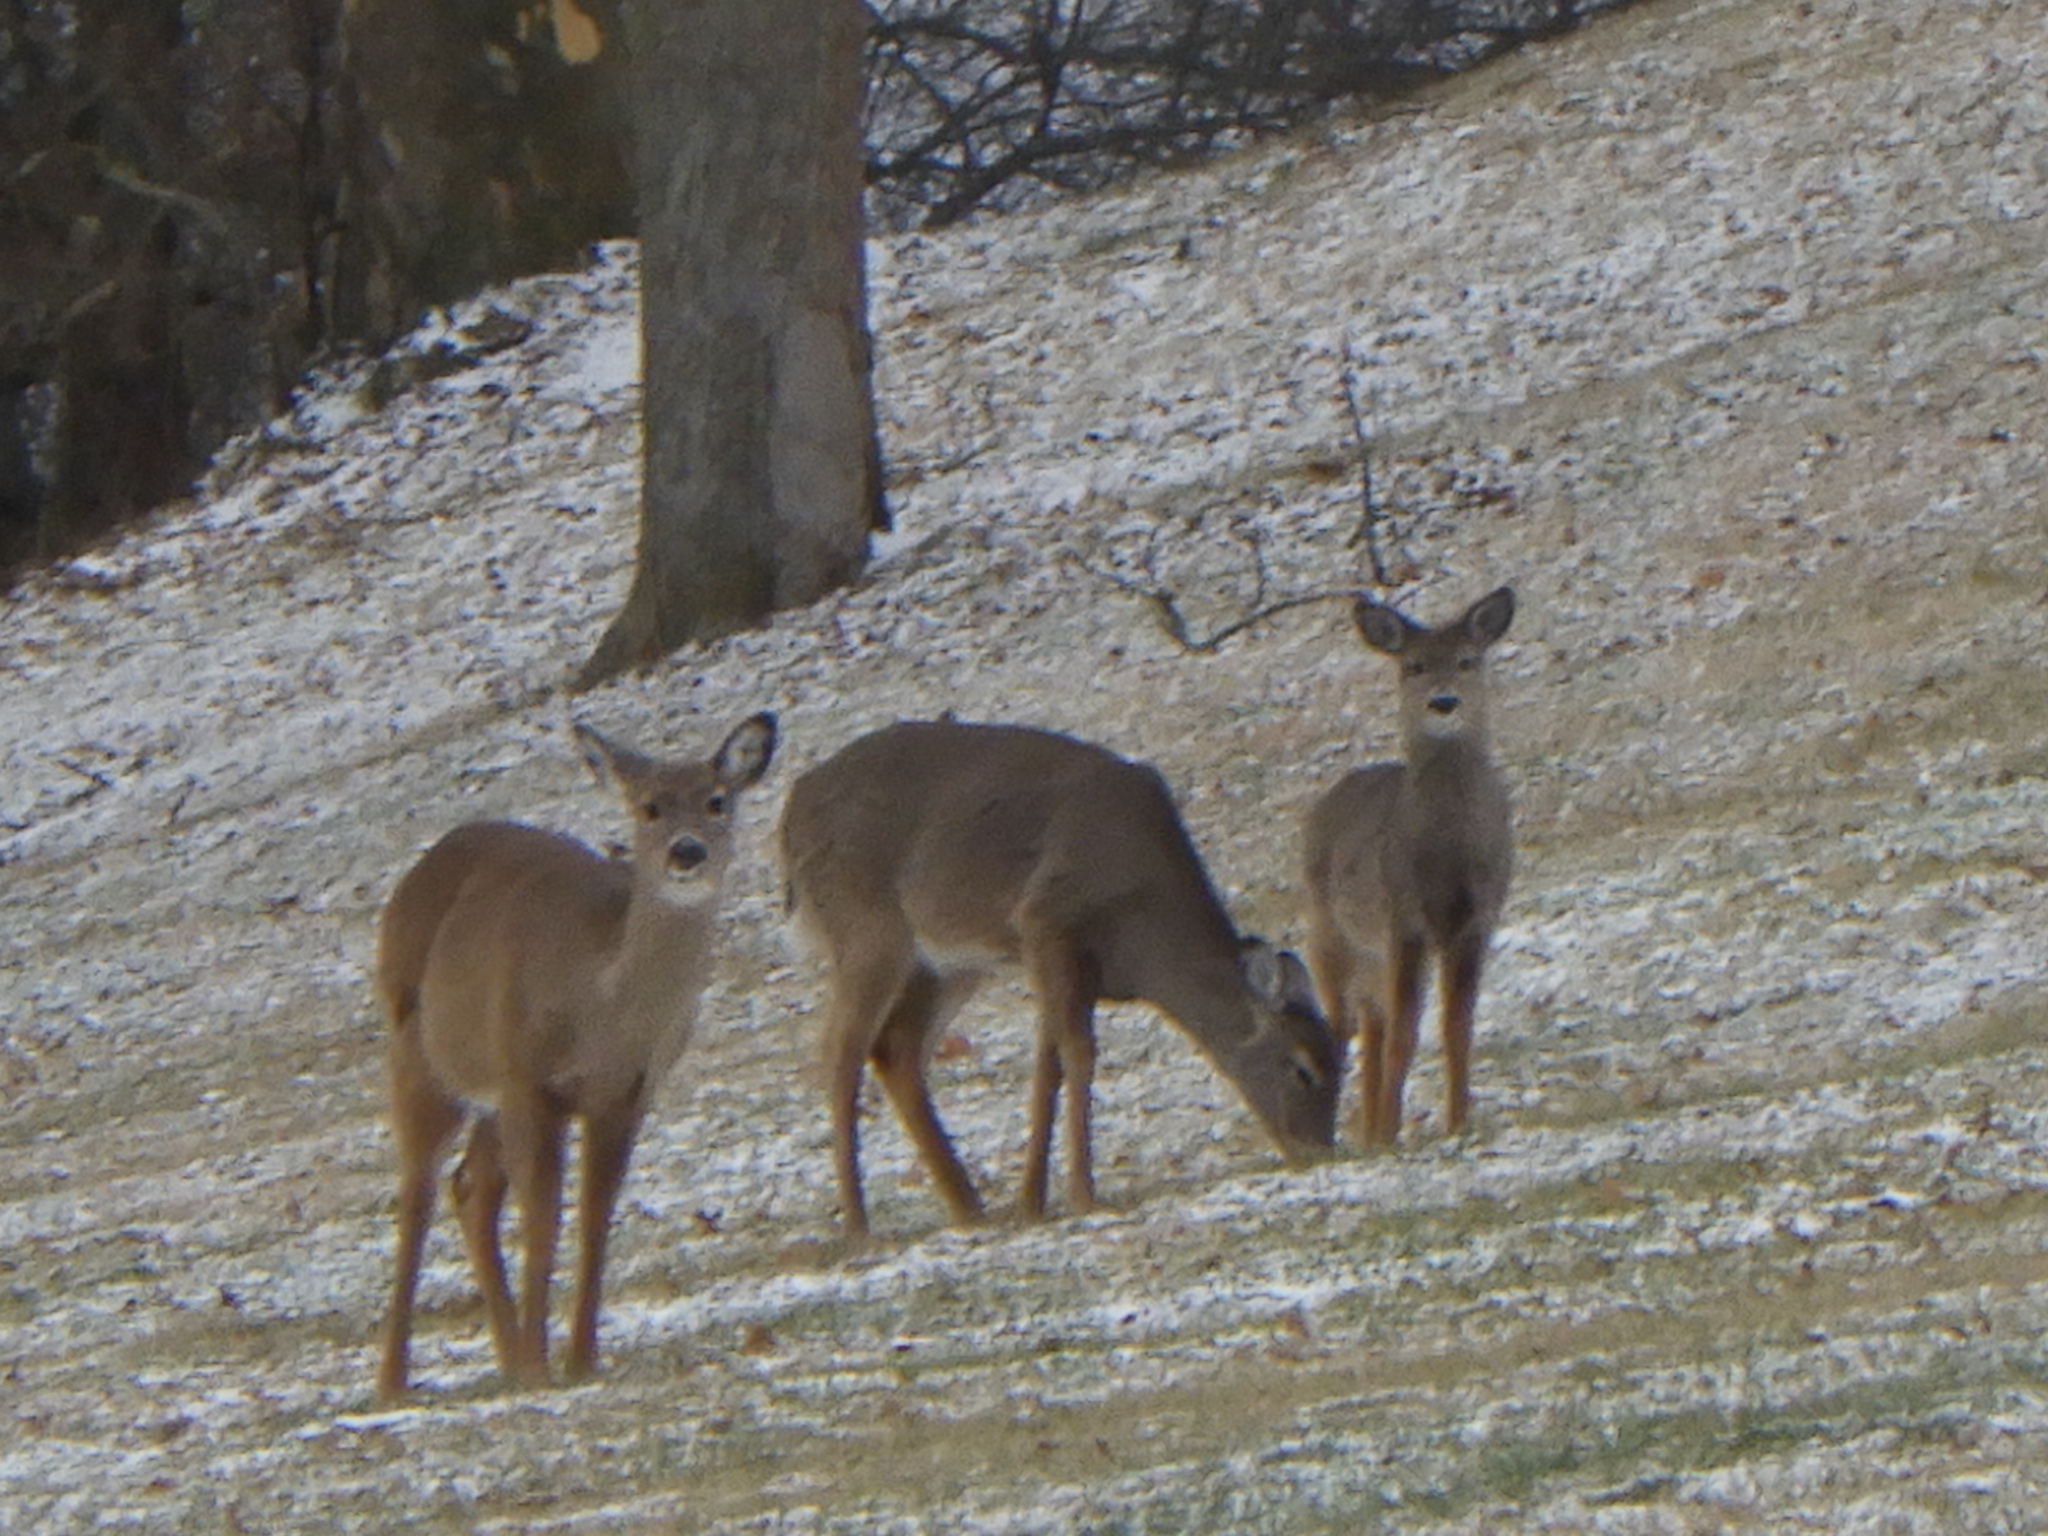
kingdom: Animalia
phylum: Chordata
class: Mammalia
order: Artiodactyla
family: Cervidae
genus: Odocoileus
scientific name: Odocoileus virginianus
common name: White-tailed deer
